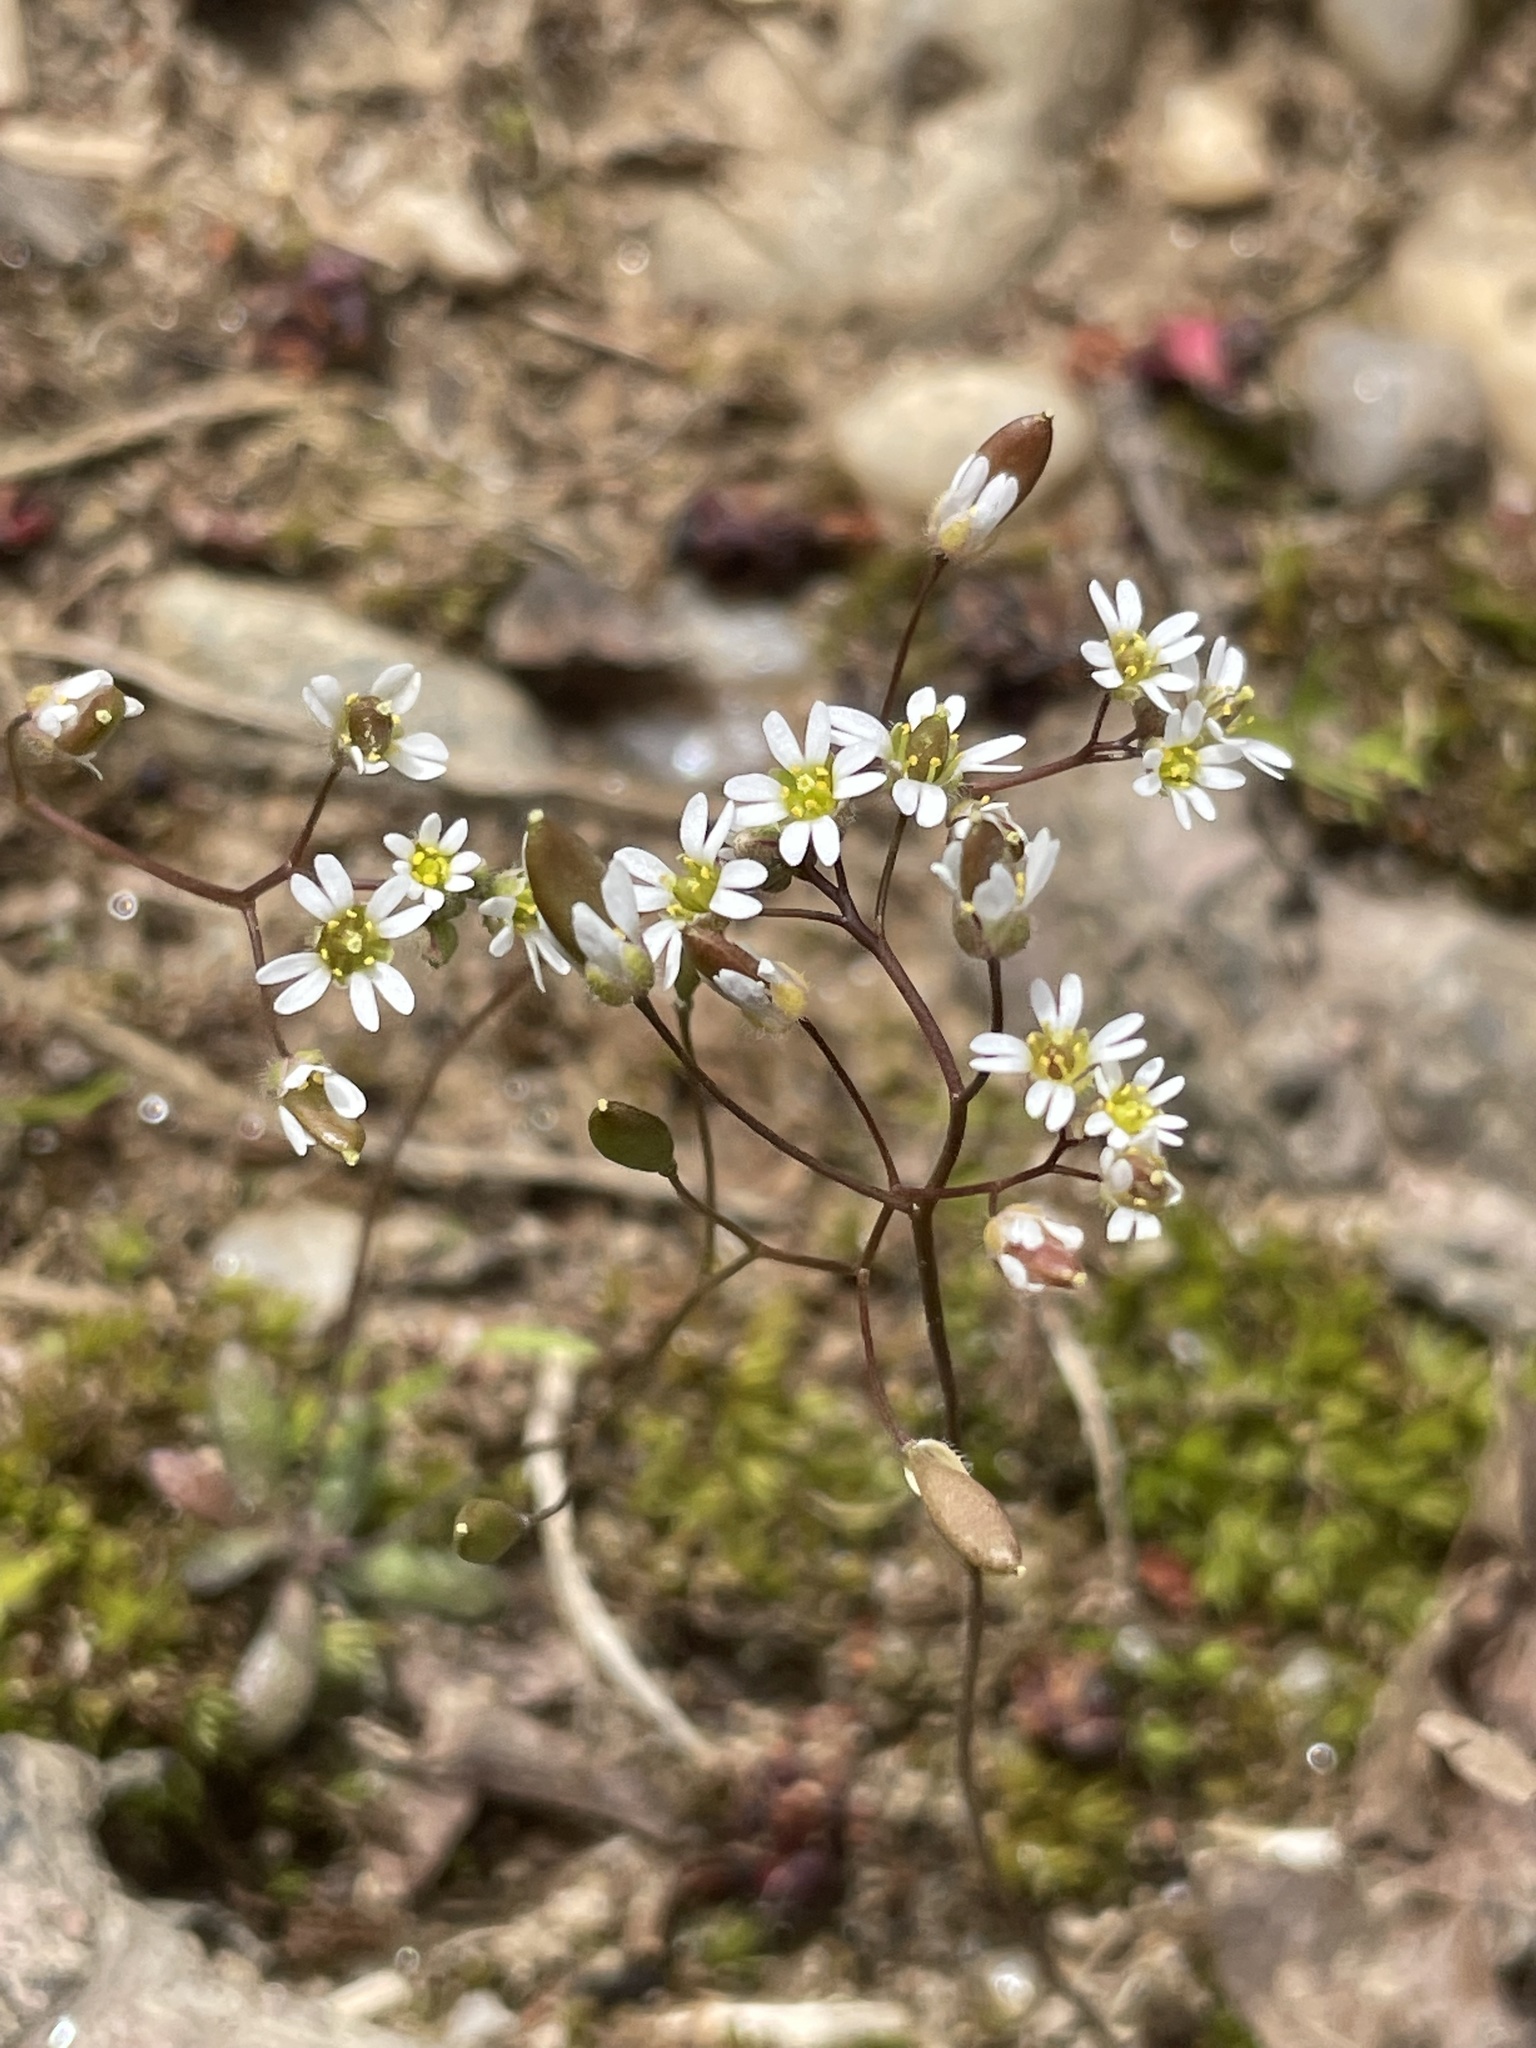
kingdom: Plantae
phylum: Tracheophyta
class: Magnoliopsida
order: Brassicales
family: Brassicaceae
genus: Draba
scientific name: Draba verna
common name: Spring draba
